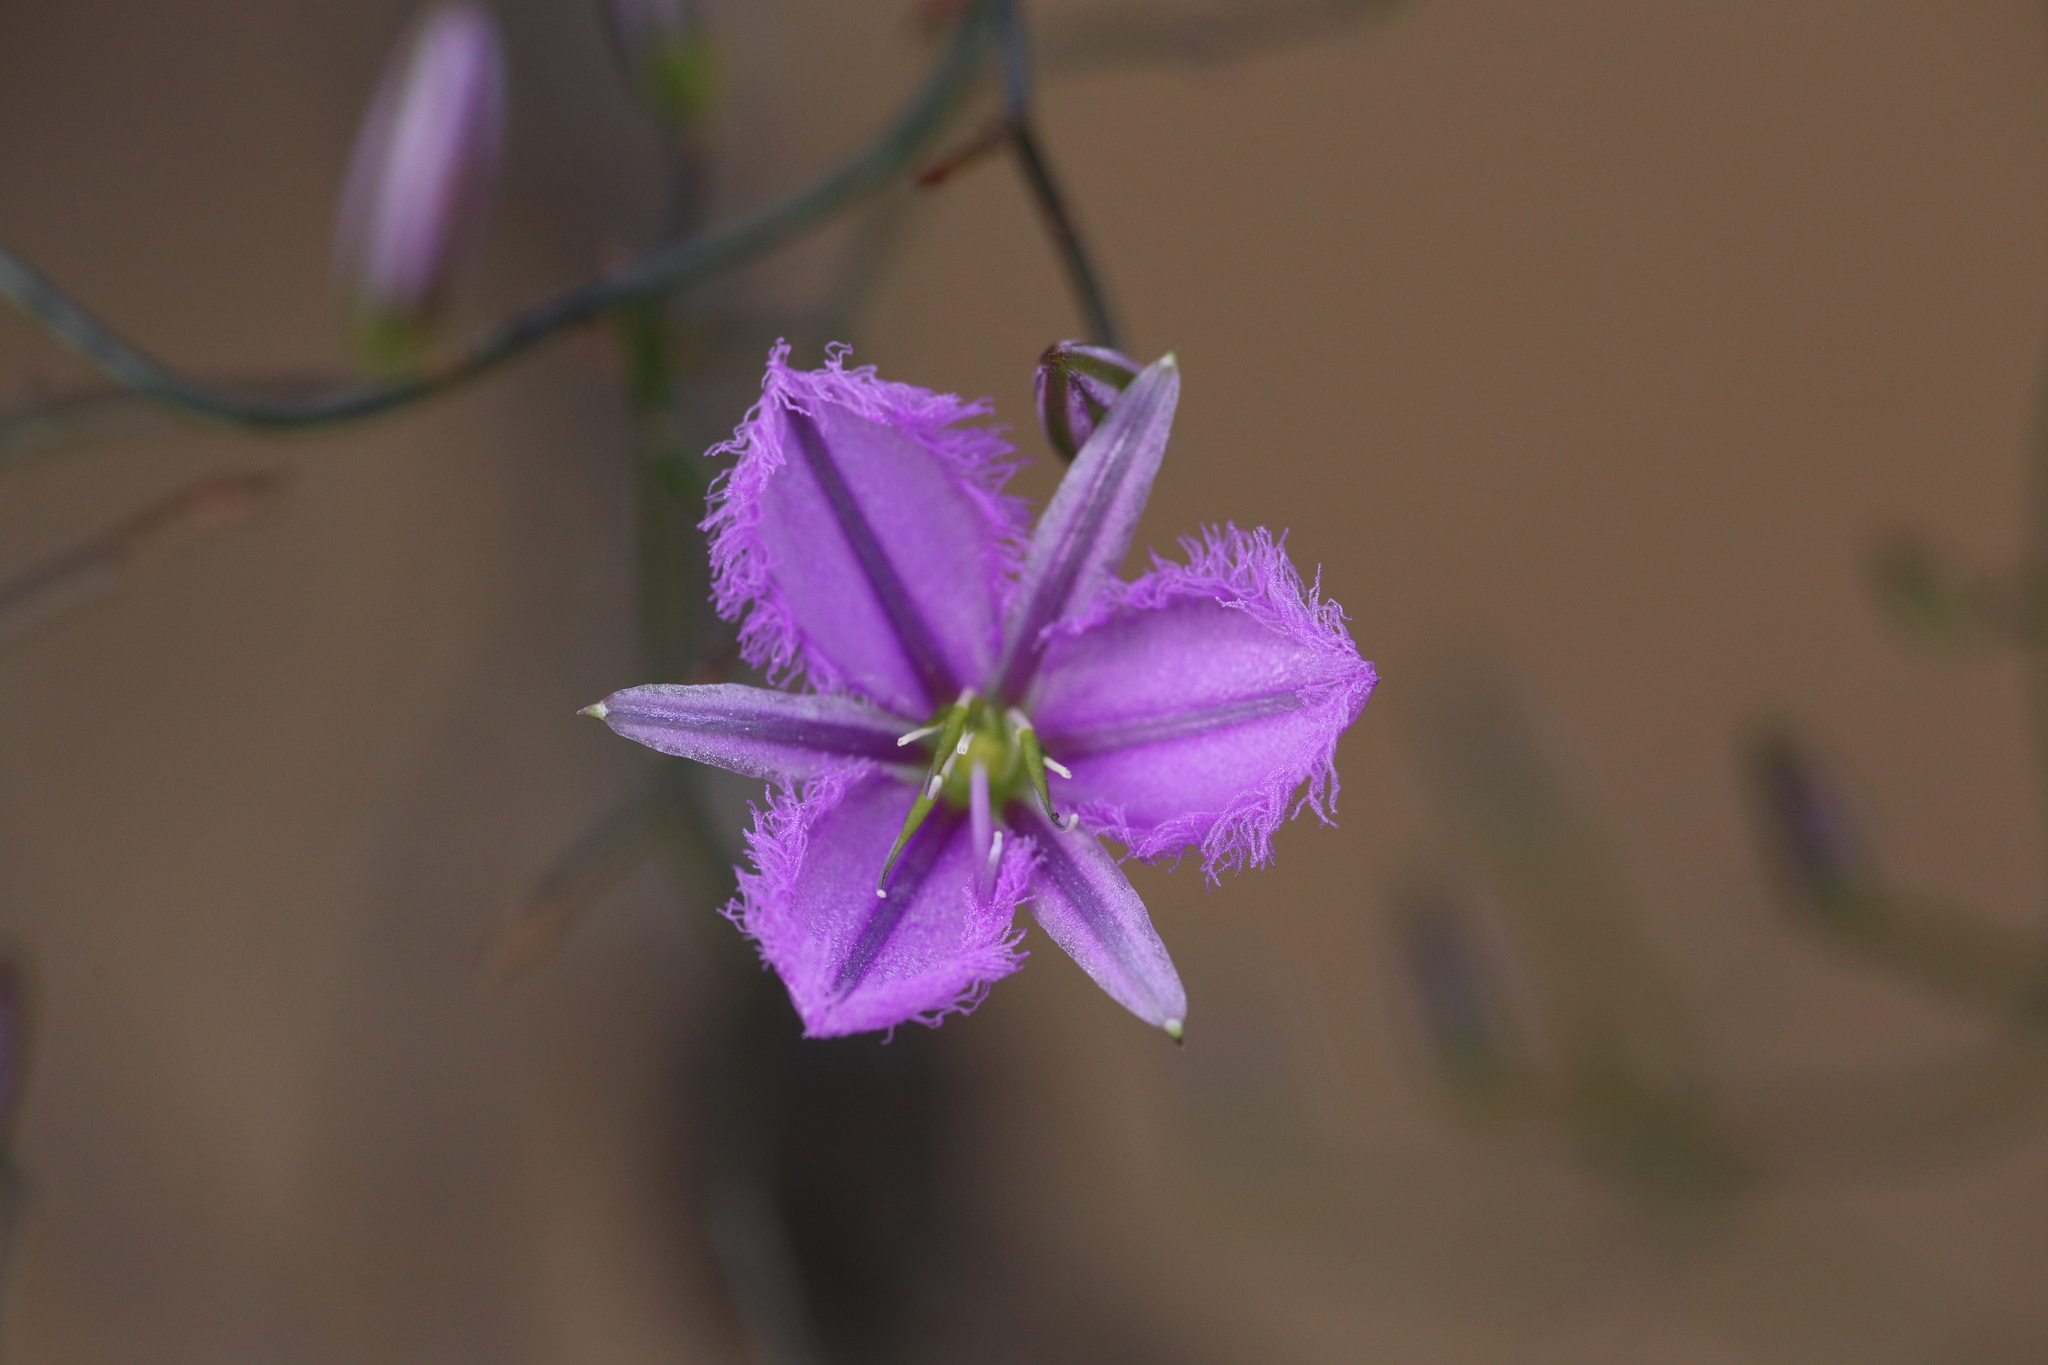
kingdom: Plantae
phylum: Tracheophyta
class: Liliopsida
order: Asparagales
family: Asparagaceae
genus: Thysanotus
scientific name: Thysanotus manglesianus
